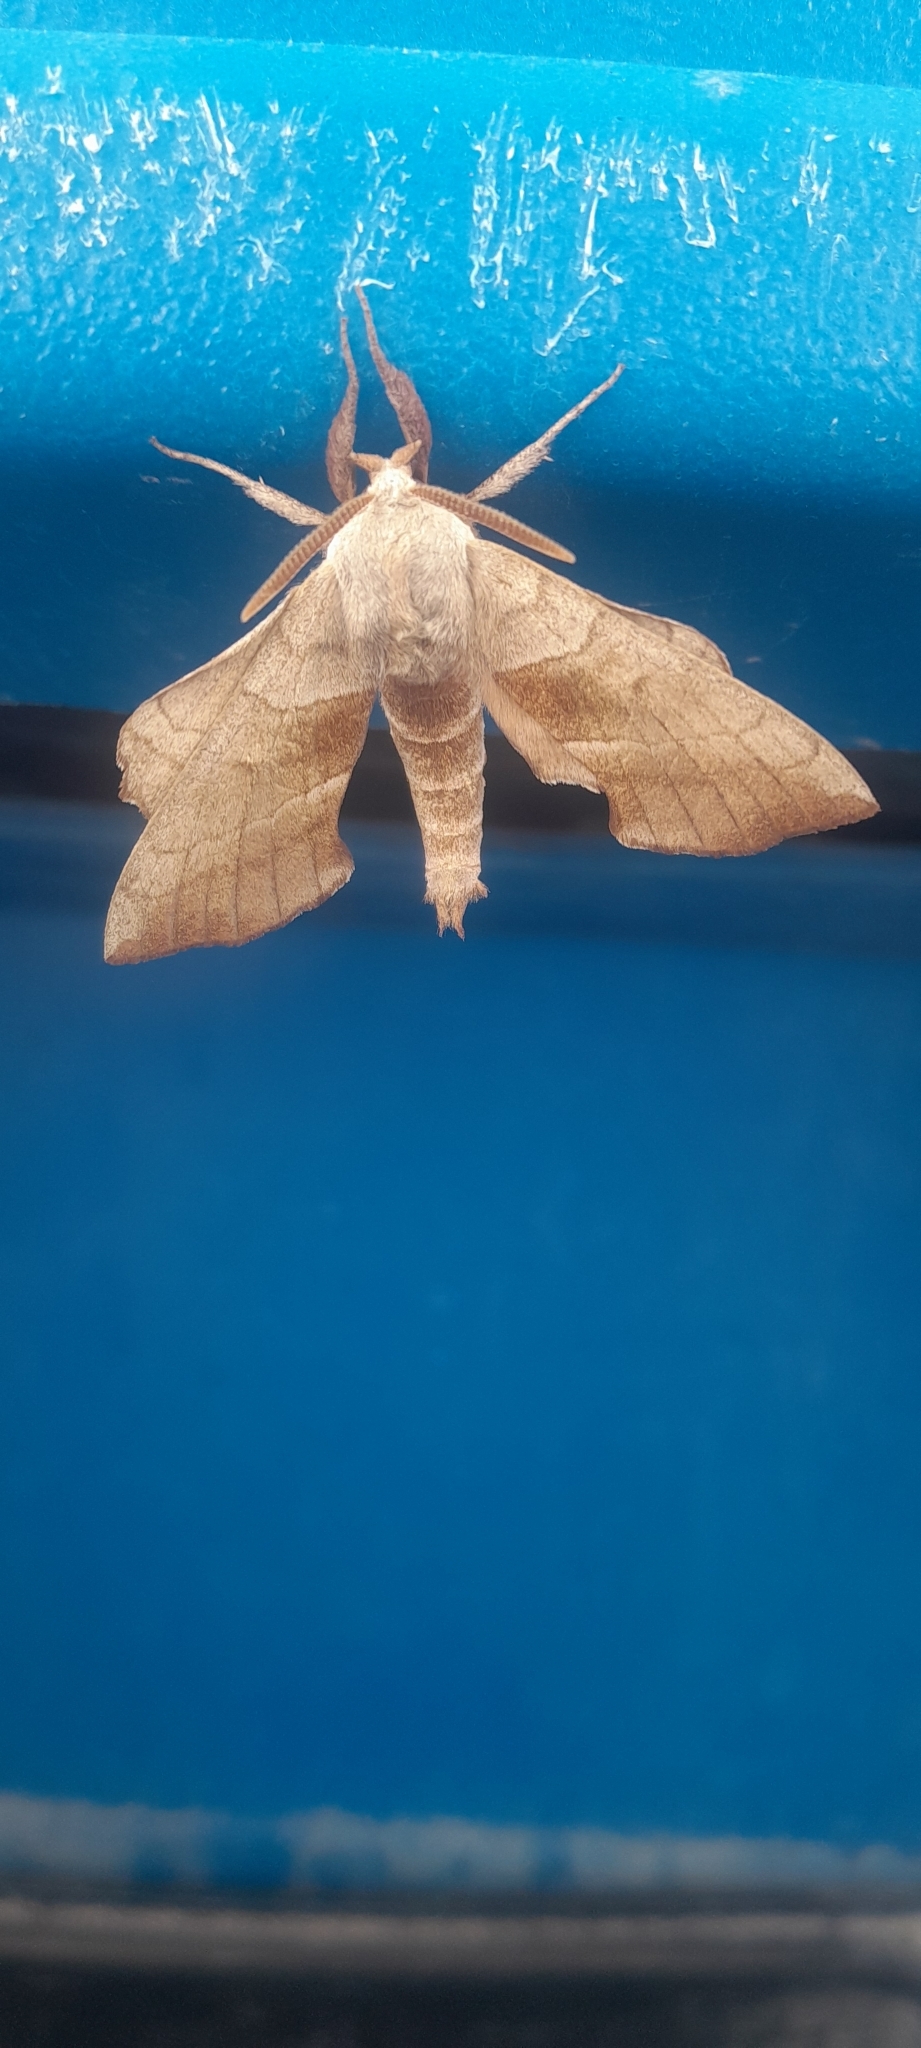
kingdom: Animalia
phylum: Arthropoda
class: Insecta
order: Lepidoptera
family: Sphingidae
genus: Amorpha
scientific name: Amorpha juglandis
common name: Walnut sphinx
